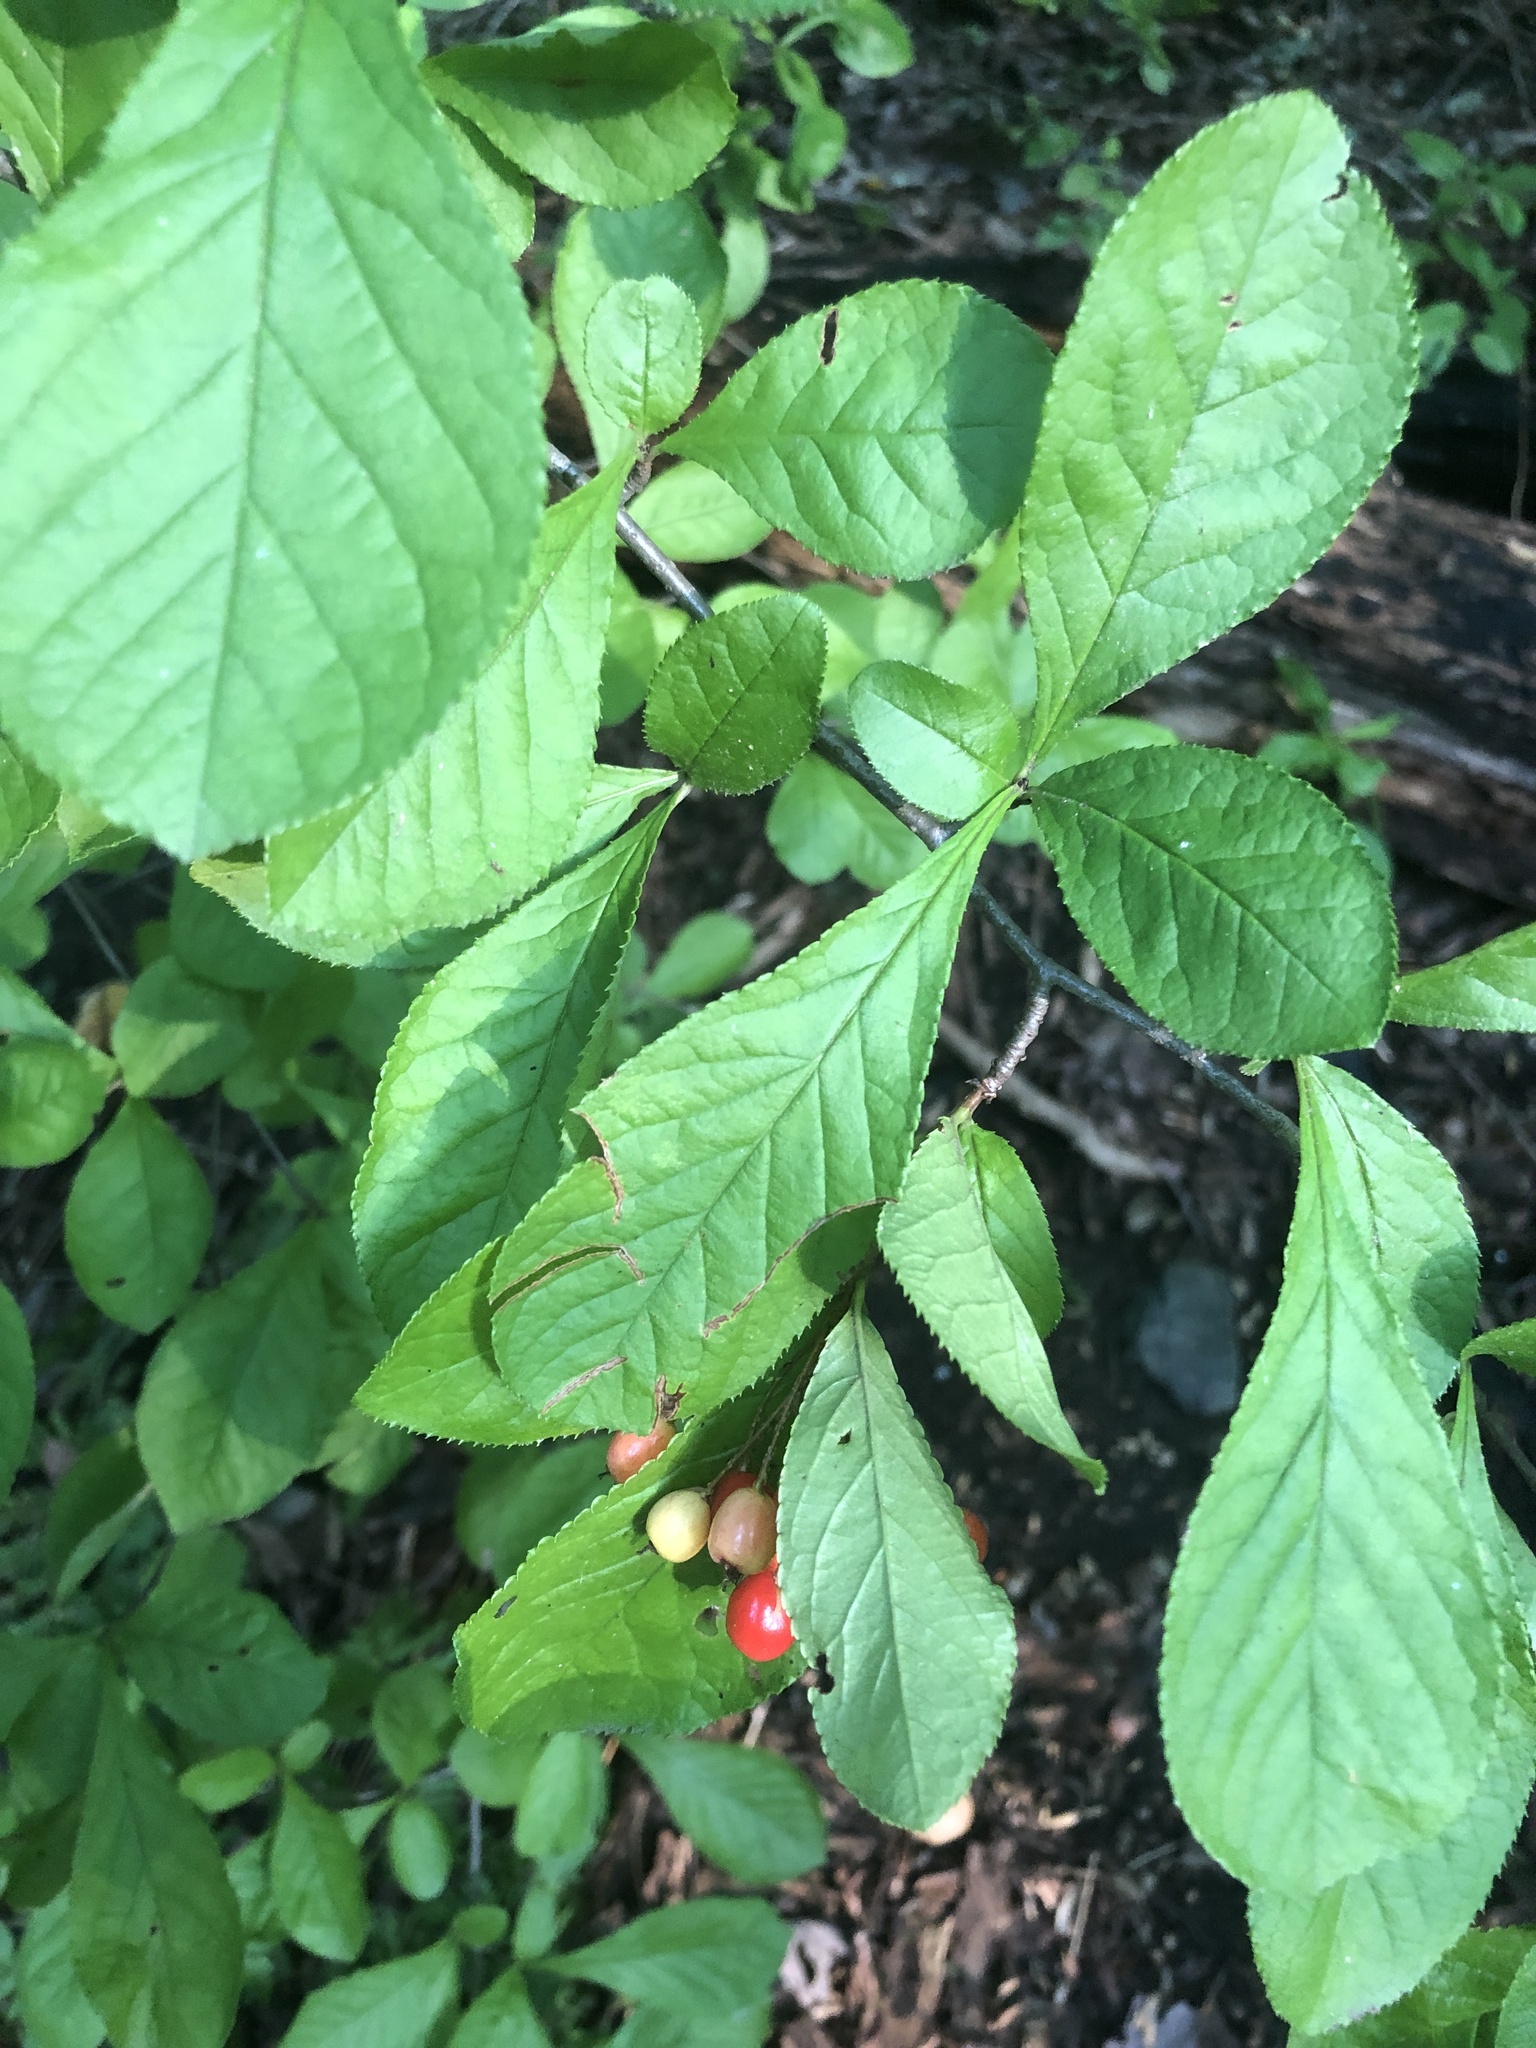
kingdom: Plantae
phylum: Tracheophyta
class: Magnoliopsida
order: Rosales
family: Rosaceae
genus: Pourthiaea
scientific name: Pourthiaea villosa
